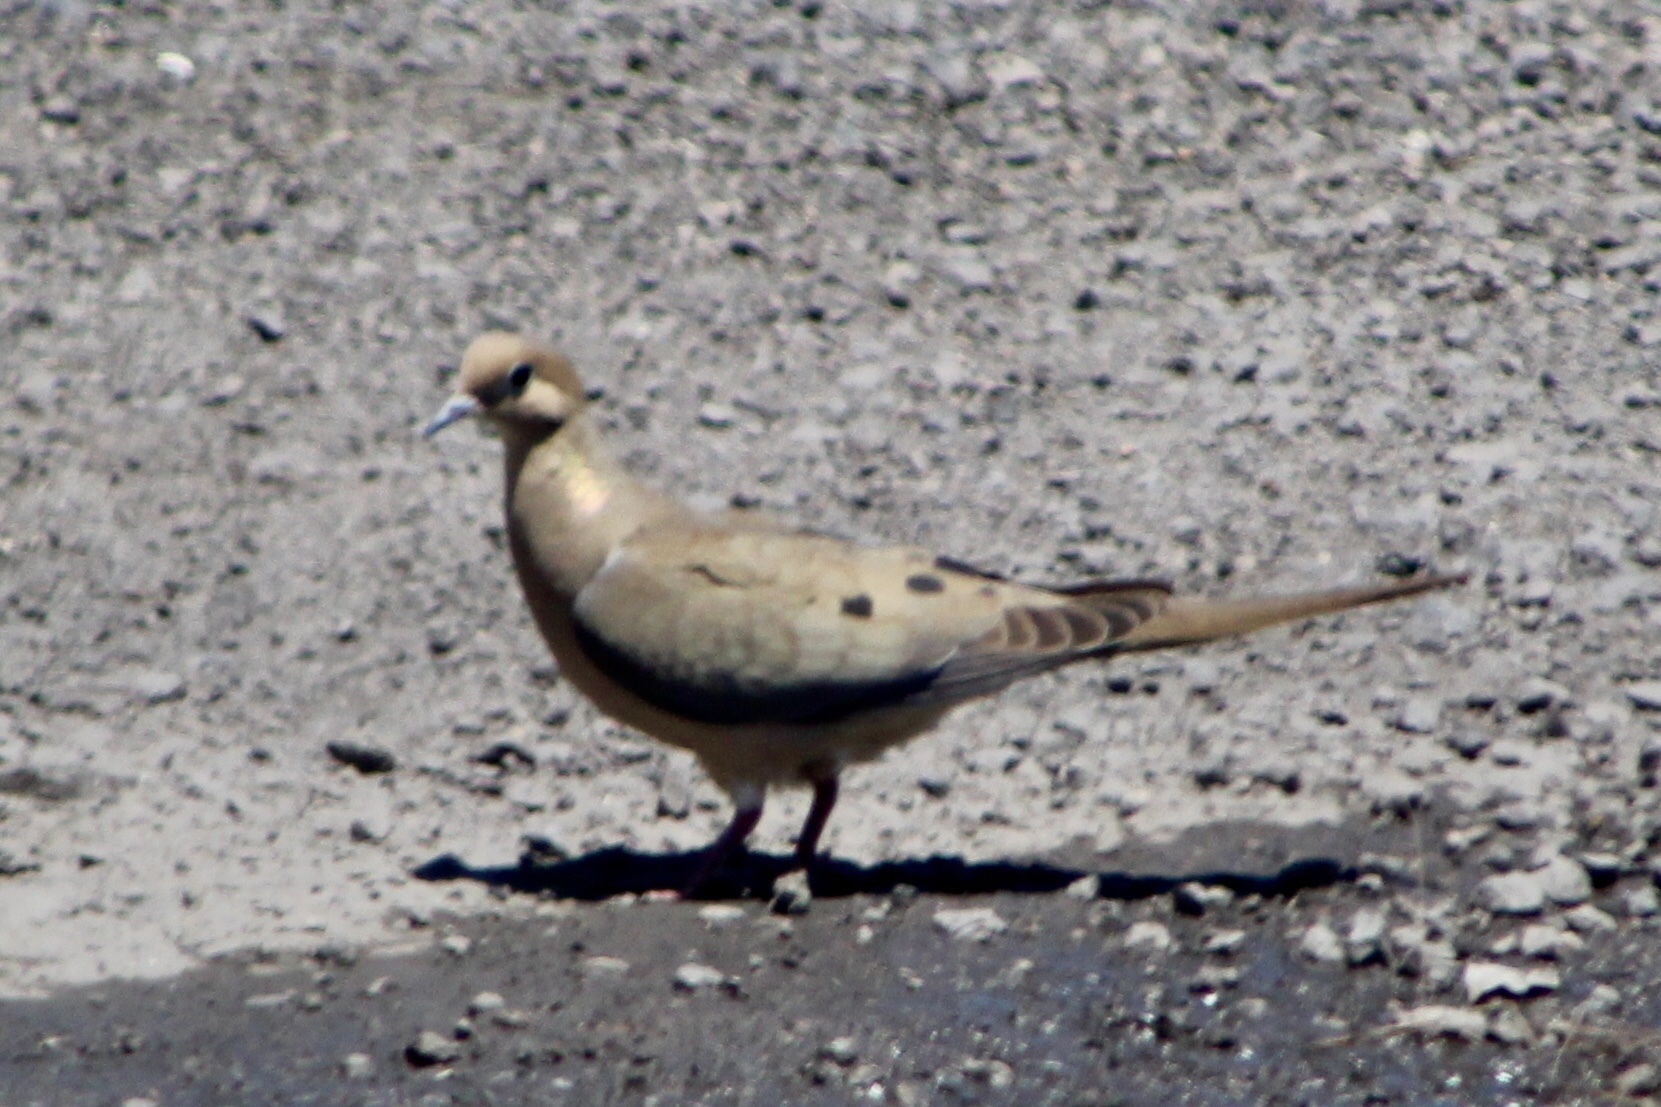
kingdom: Animalia
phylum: Chordata
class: Aves
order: Columbiformes
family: Columbidae
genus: Zenaida
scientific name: Zenaida macroura
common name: Mourning dove
